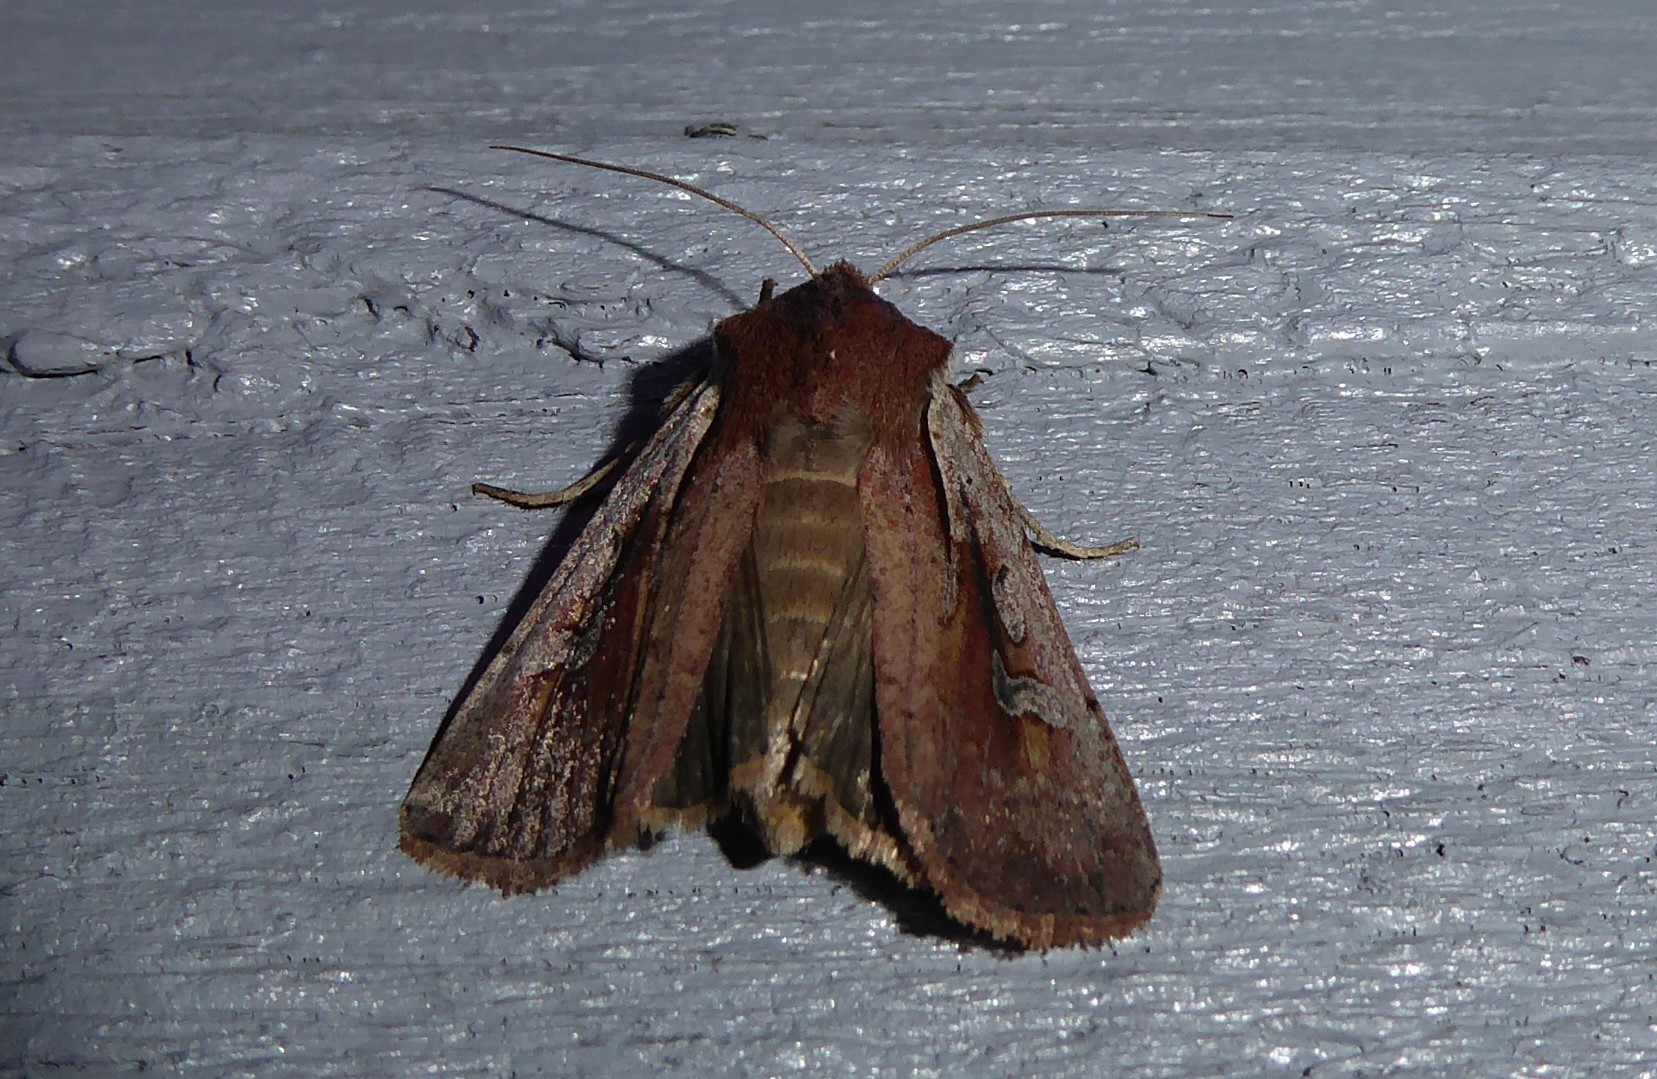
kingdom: Animalia
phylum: Arthropoda
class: Insecta
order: Lepidoptera
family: Noctuidae
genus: Ichneutica
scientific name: Ichneutica atristriga
